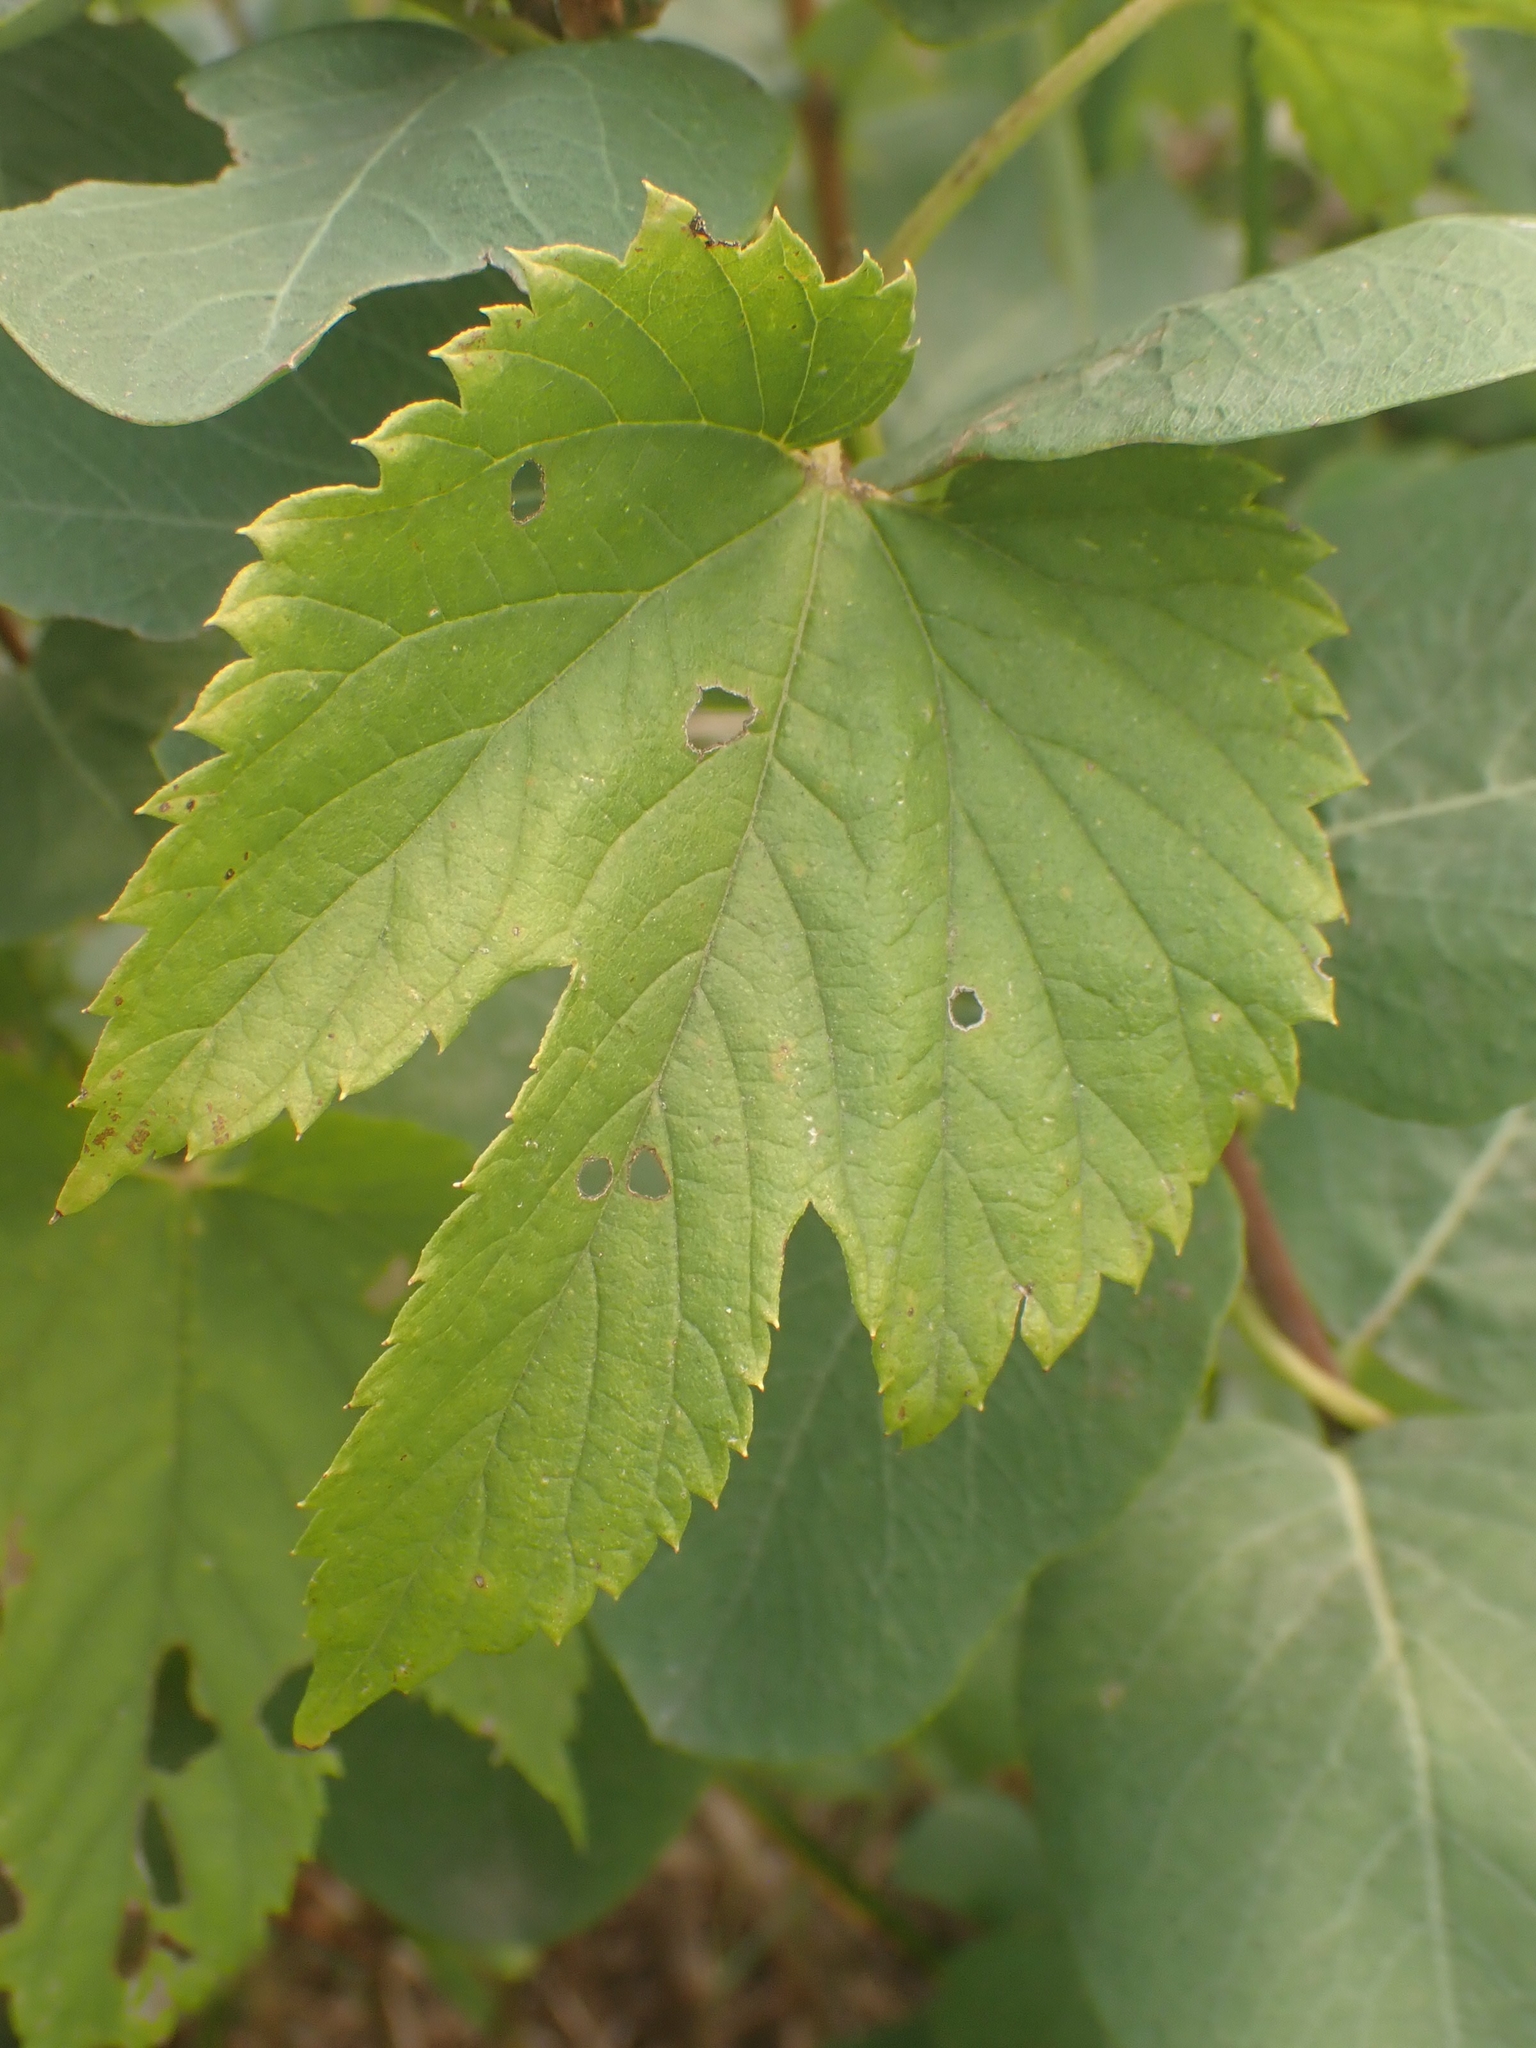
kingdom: Plantae
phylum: Tracheophyta
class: Magnoliopsida
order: Rosales
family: Cannabaceae
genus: Humulus
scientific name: Humulus lupulus
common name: Hop
